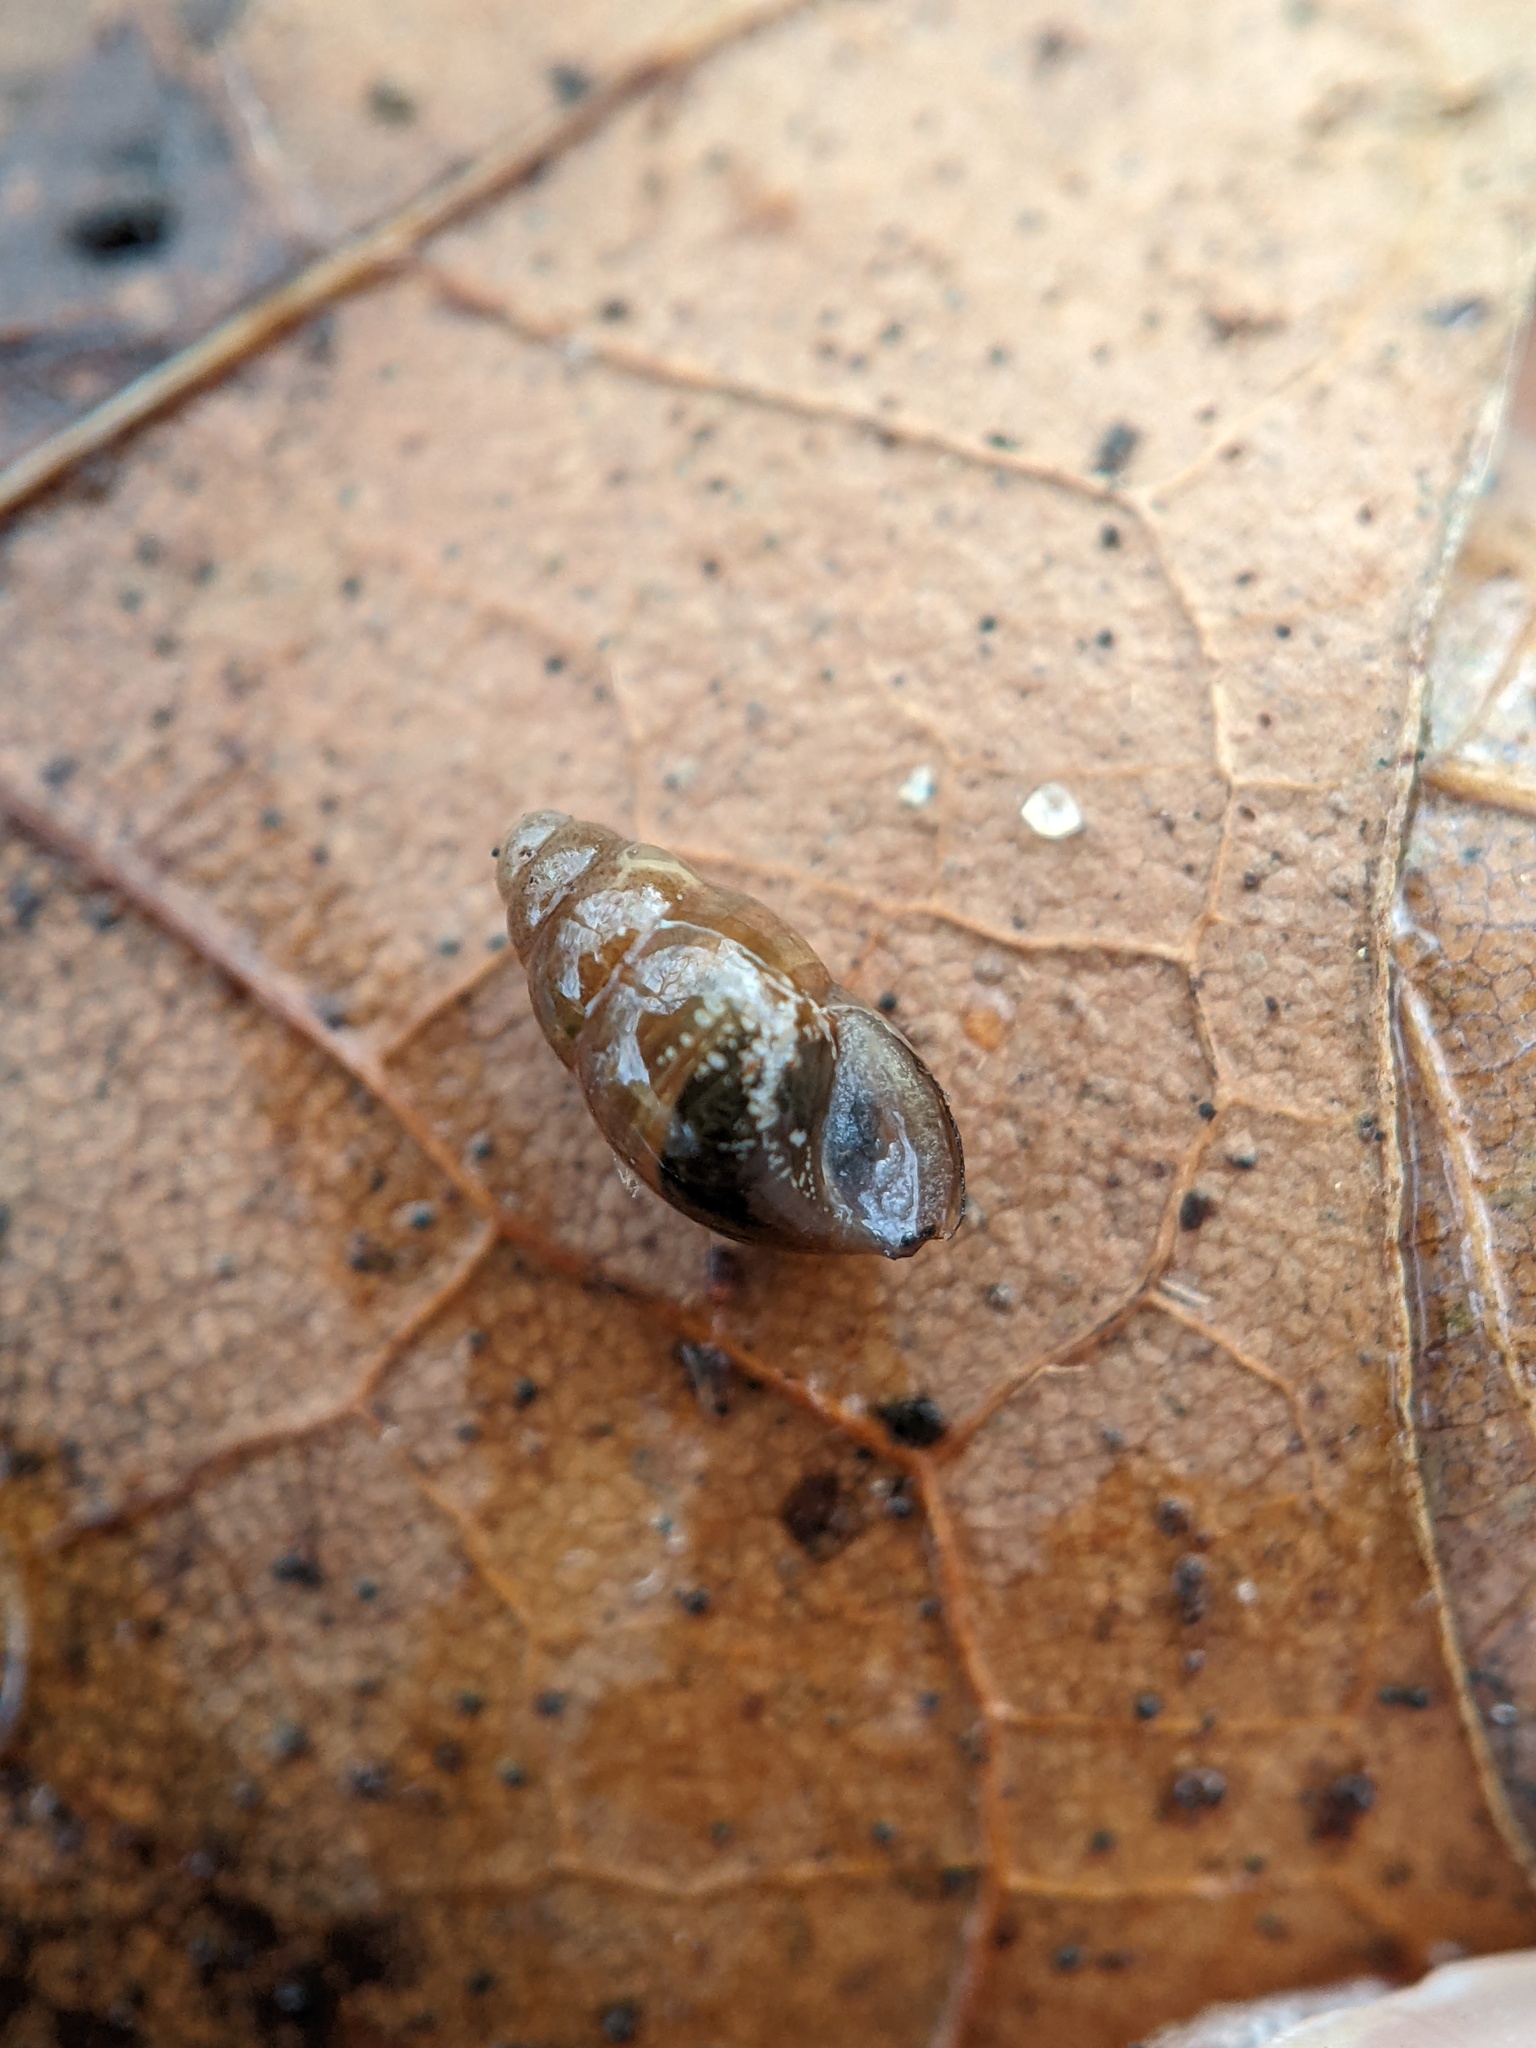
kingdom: Animalia
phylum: Mollusca
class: Gastropoda
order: Stylommatophora
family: Cochlicopidae
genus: Cochlicopa
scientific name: Cochlicopa lubrica
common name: Glossy pillar snail
